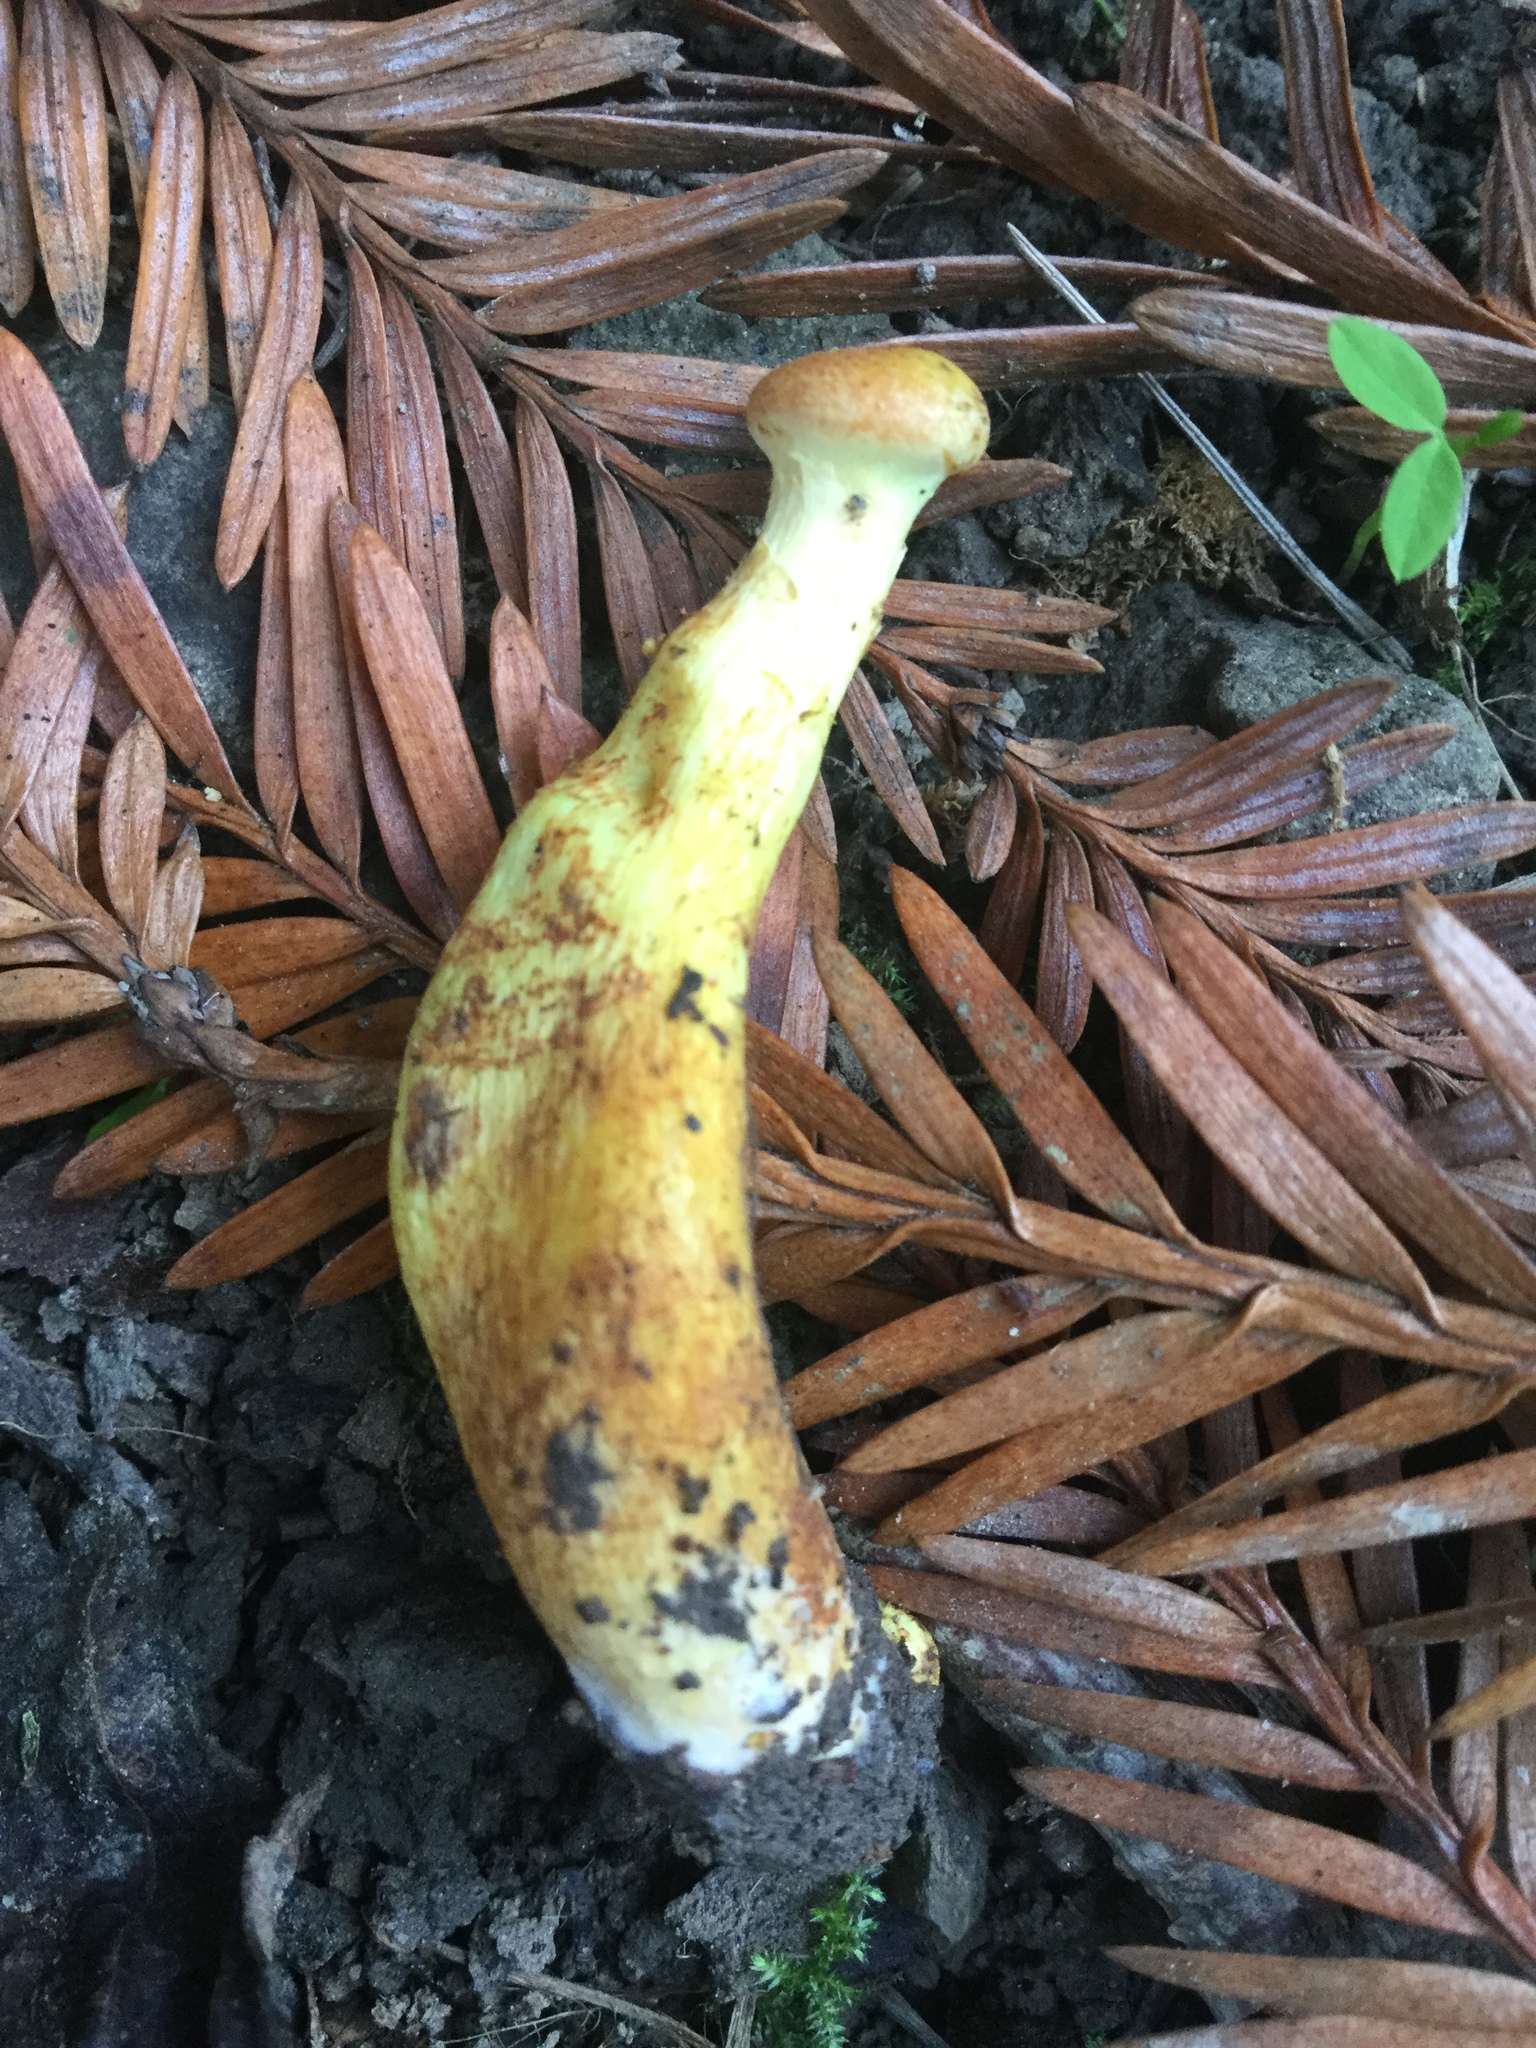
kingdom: Fungi
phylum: Basidiomycota
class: Agaricomycetes
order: Agaricales
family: Strophariaceae
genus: Hypholoma
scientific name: Hypholoma fasciculare
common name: Sulphur tuft
